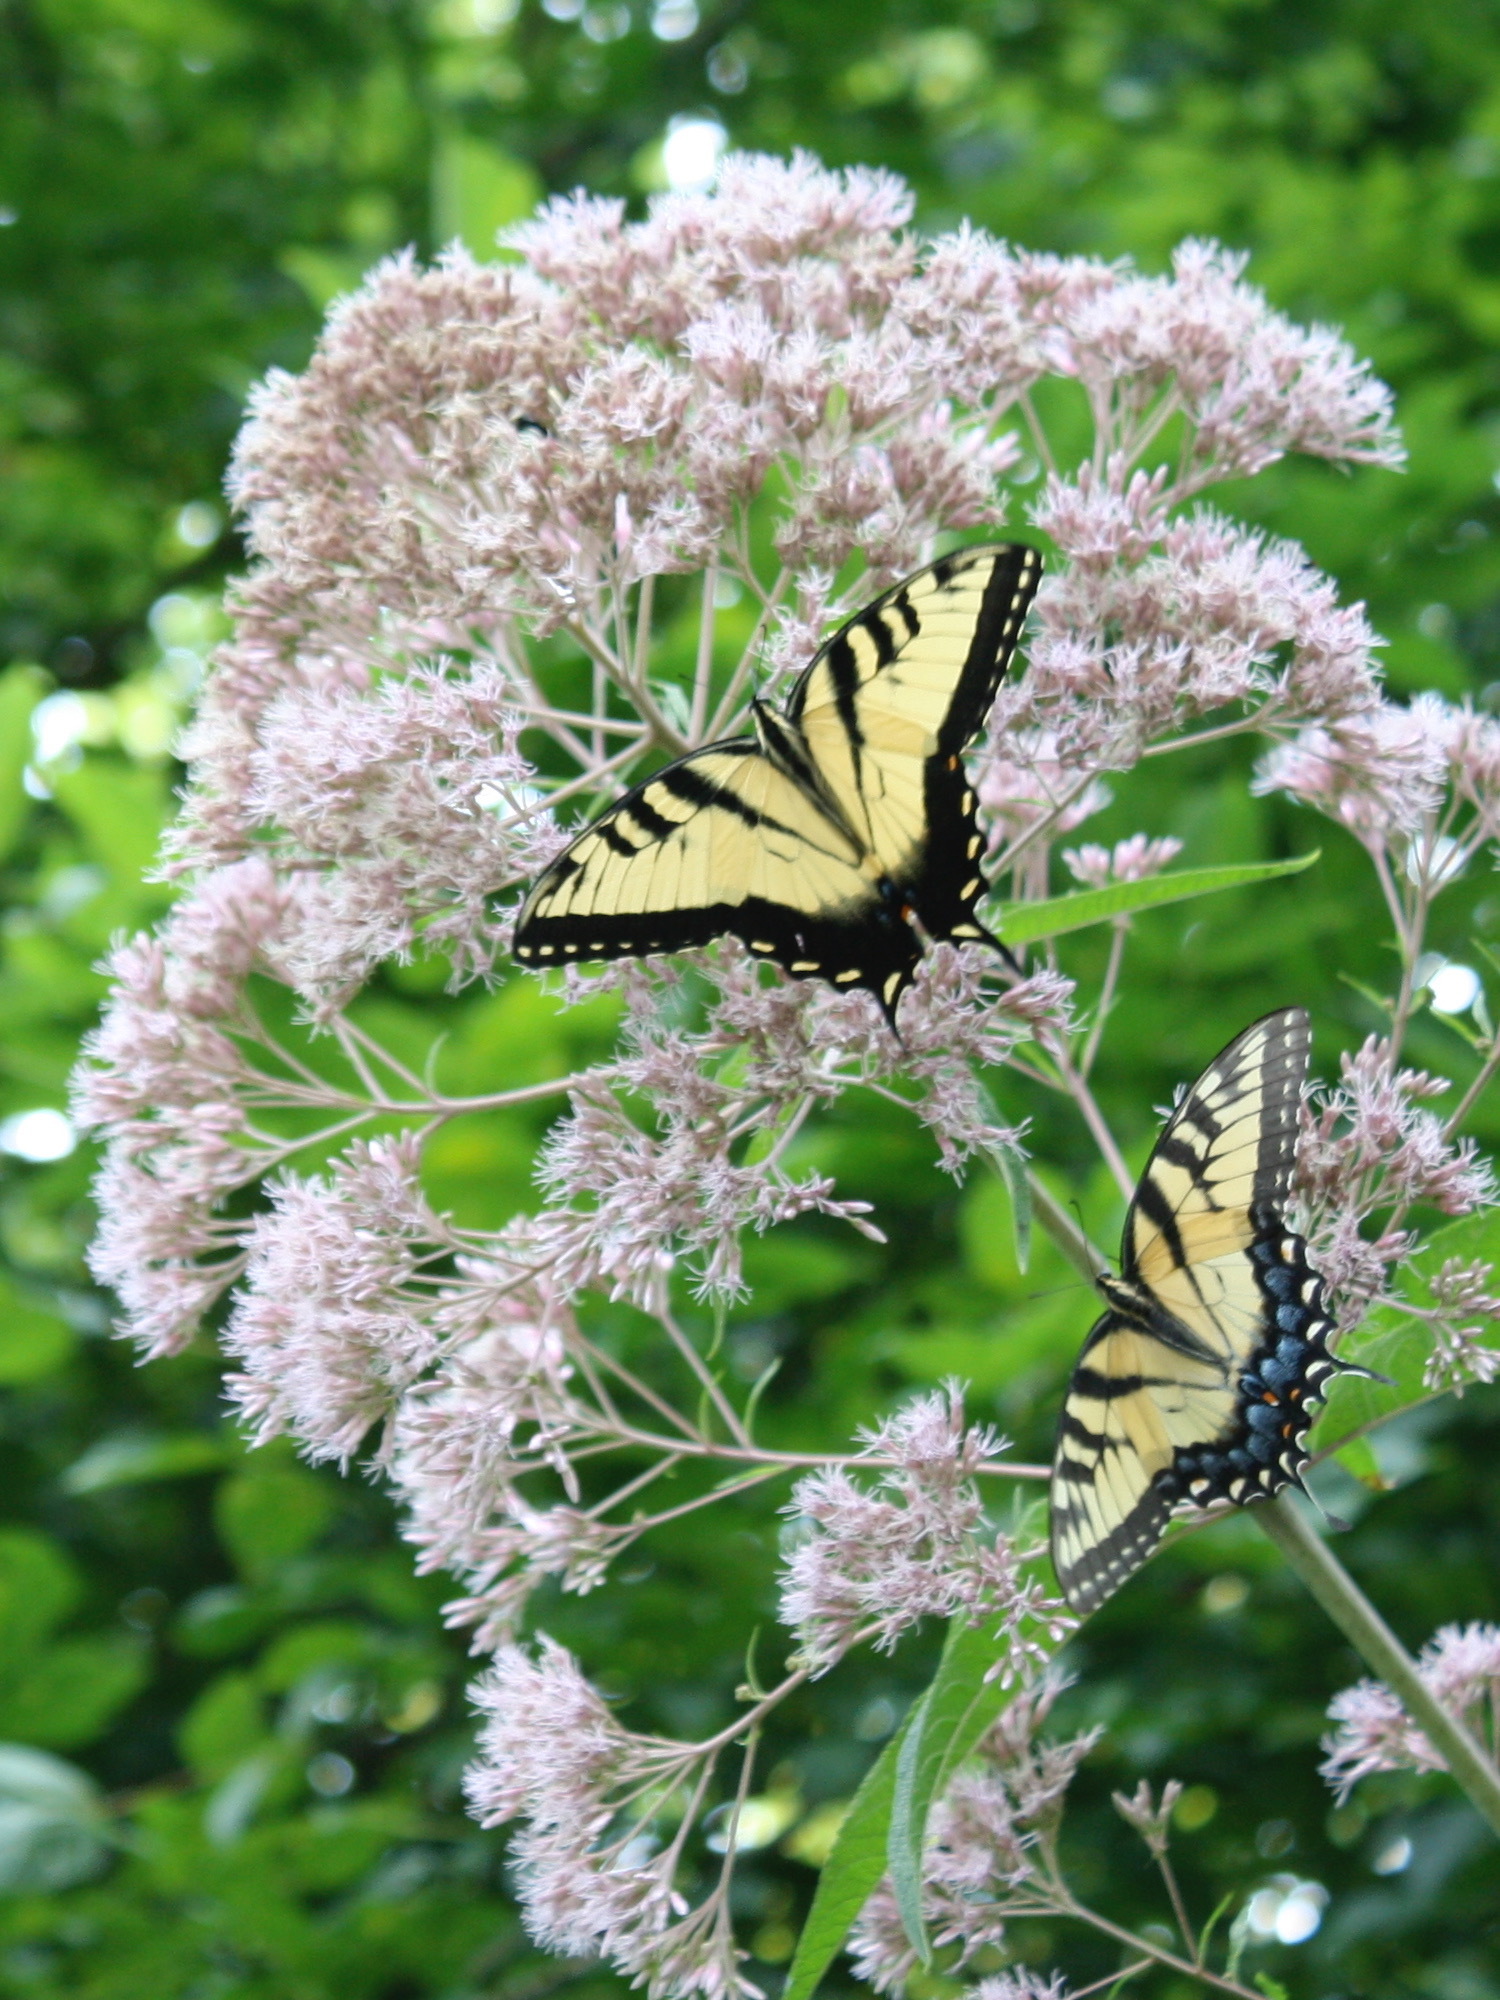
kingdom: Animalia
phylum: Arthropoda
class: Insecta
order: Lepidoptera
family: Papilionidae
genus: Papilio
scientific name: Papilio glaucus
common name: Tiger swallowtail
